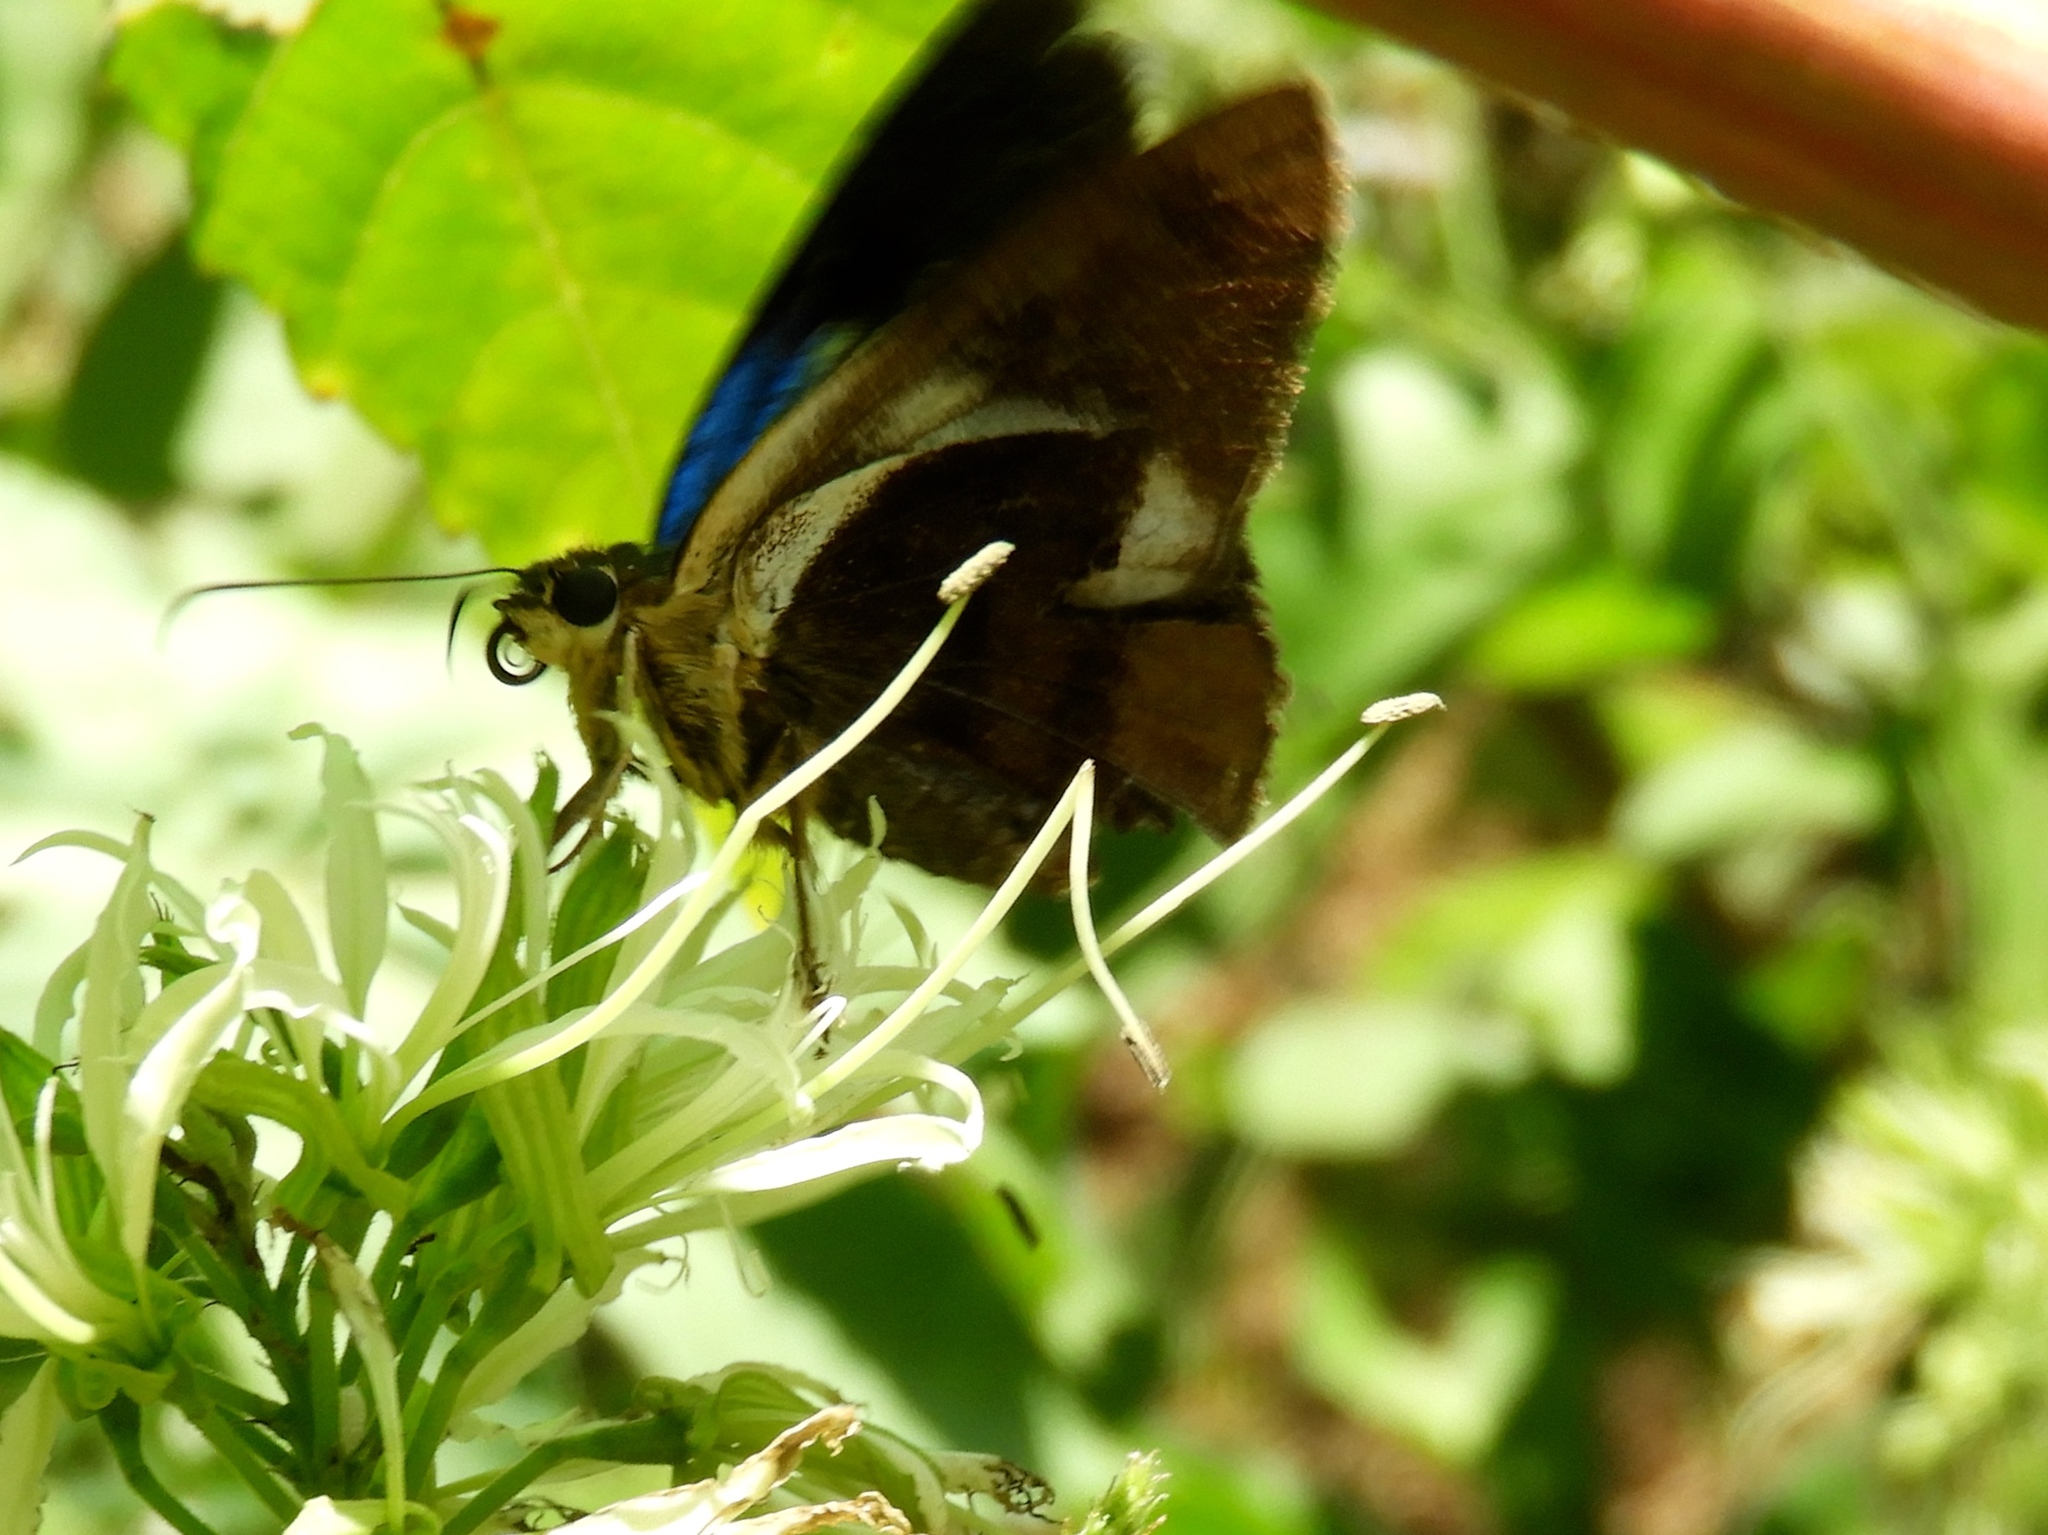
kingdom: Animalia
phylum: Arthropoda
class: Insecta
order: Lepidoptera
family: Hesperiidae
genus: Astraptes
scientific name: Astraptes fulgerator
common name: Two-barred flasher
